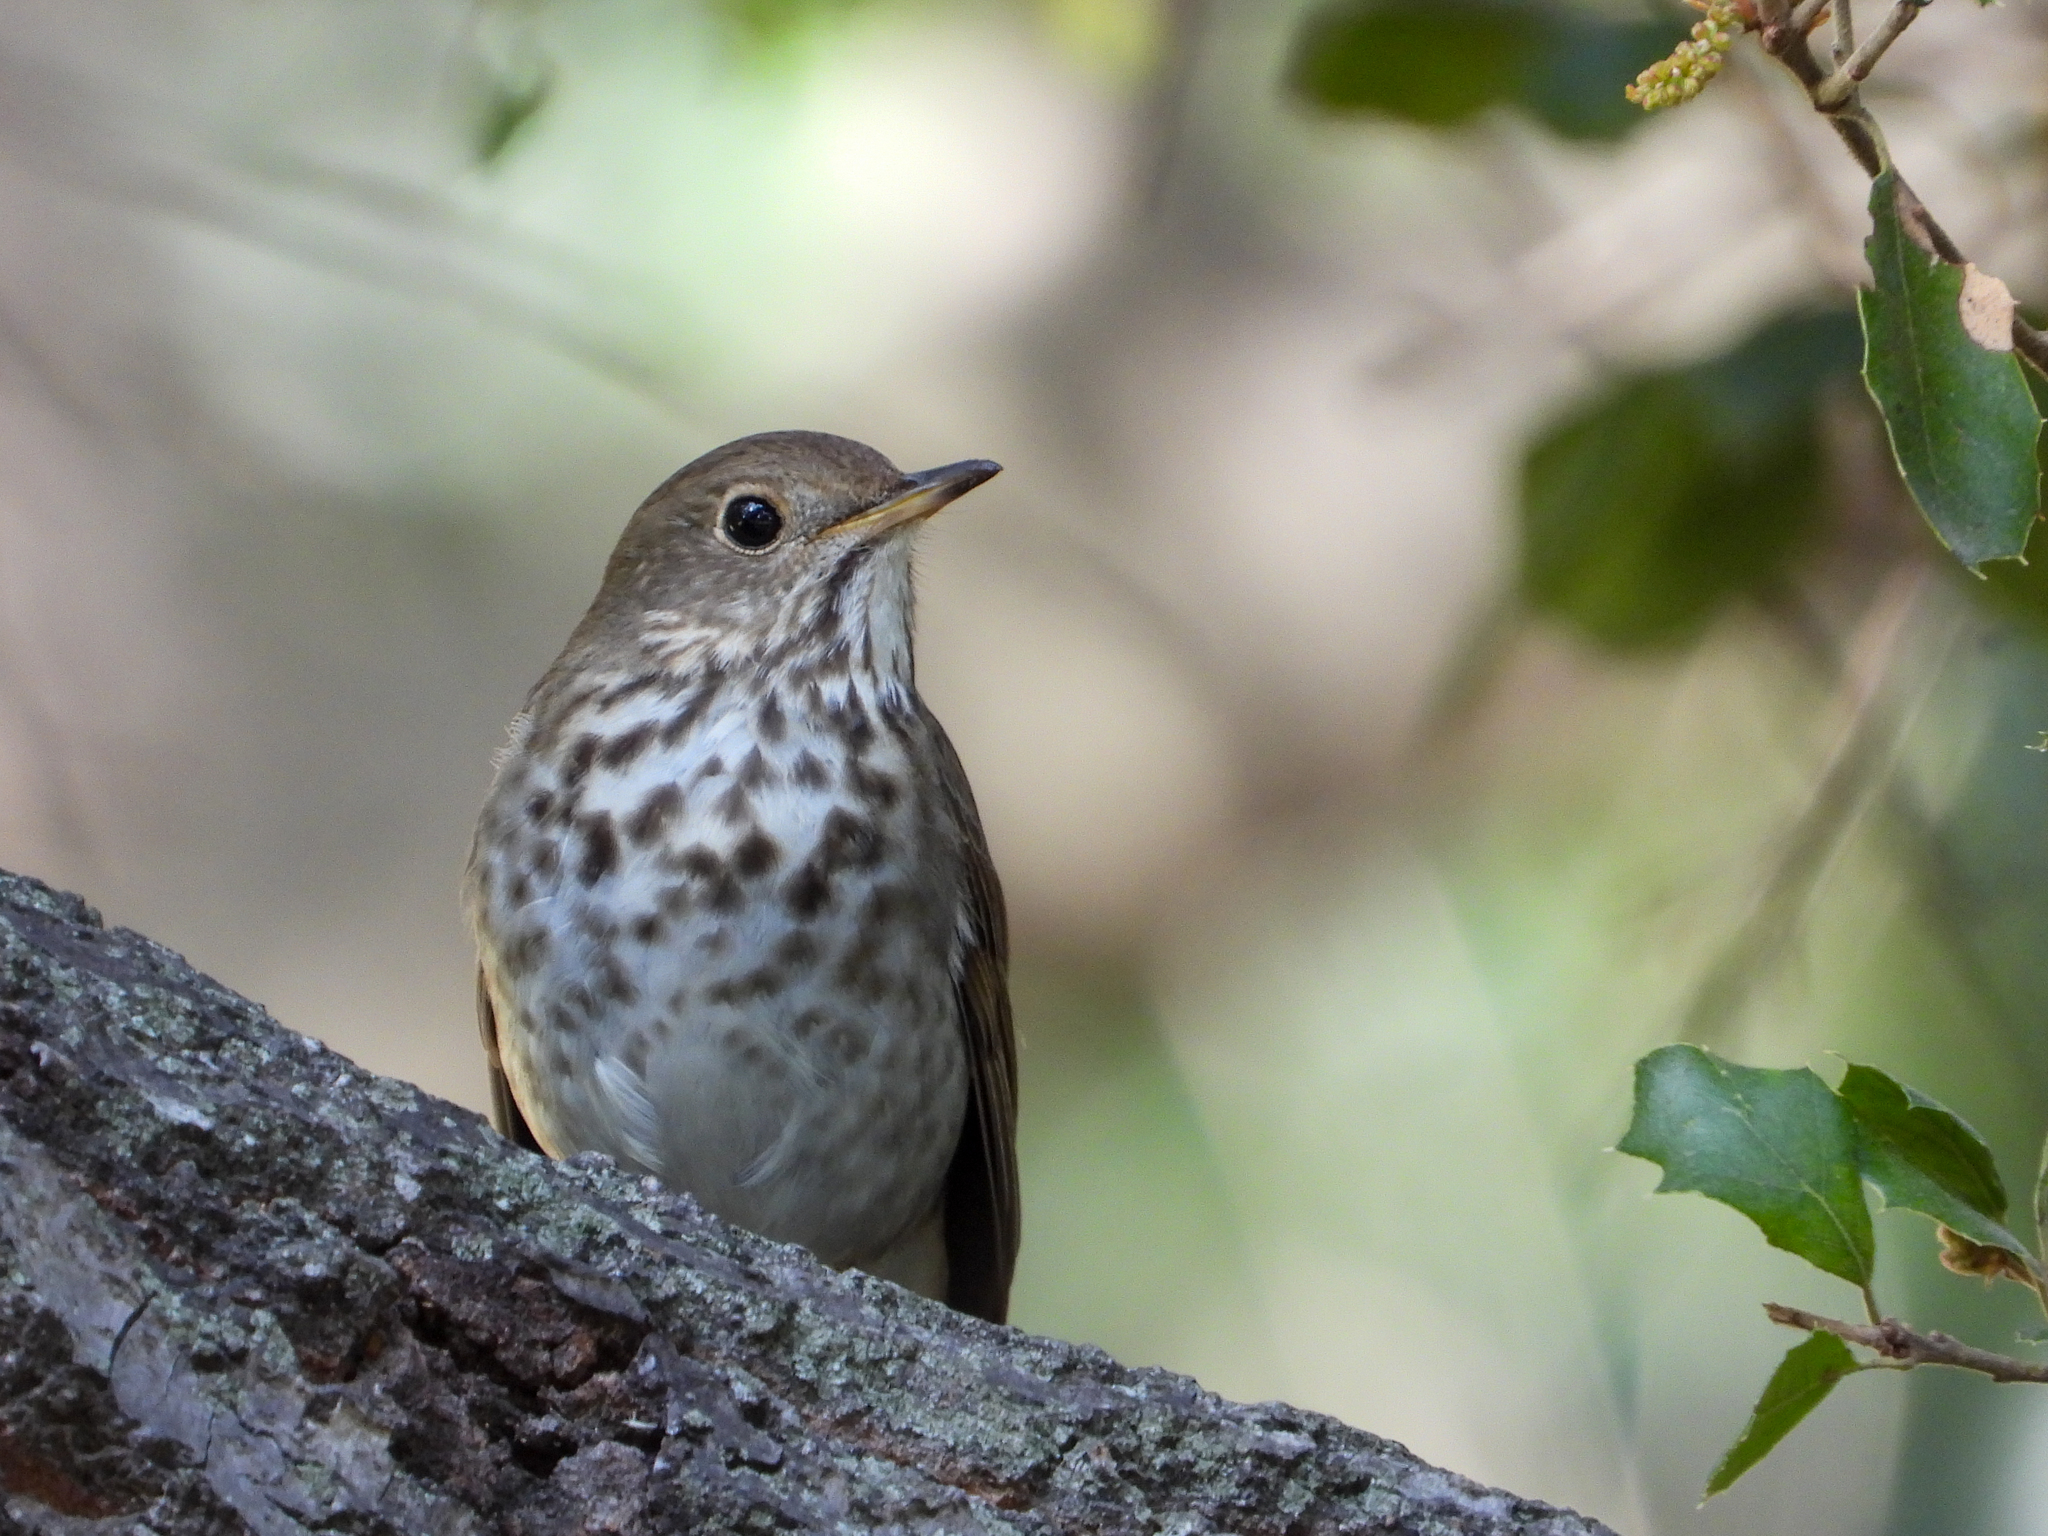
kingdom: Animalia
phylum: Chordata
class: Aves
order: Passeriformes
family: Turdidae
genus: Catharus
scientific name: Catharus guttatus
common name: Hermit thrush
